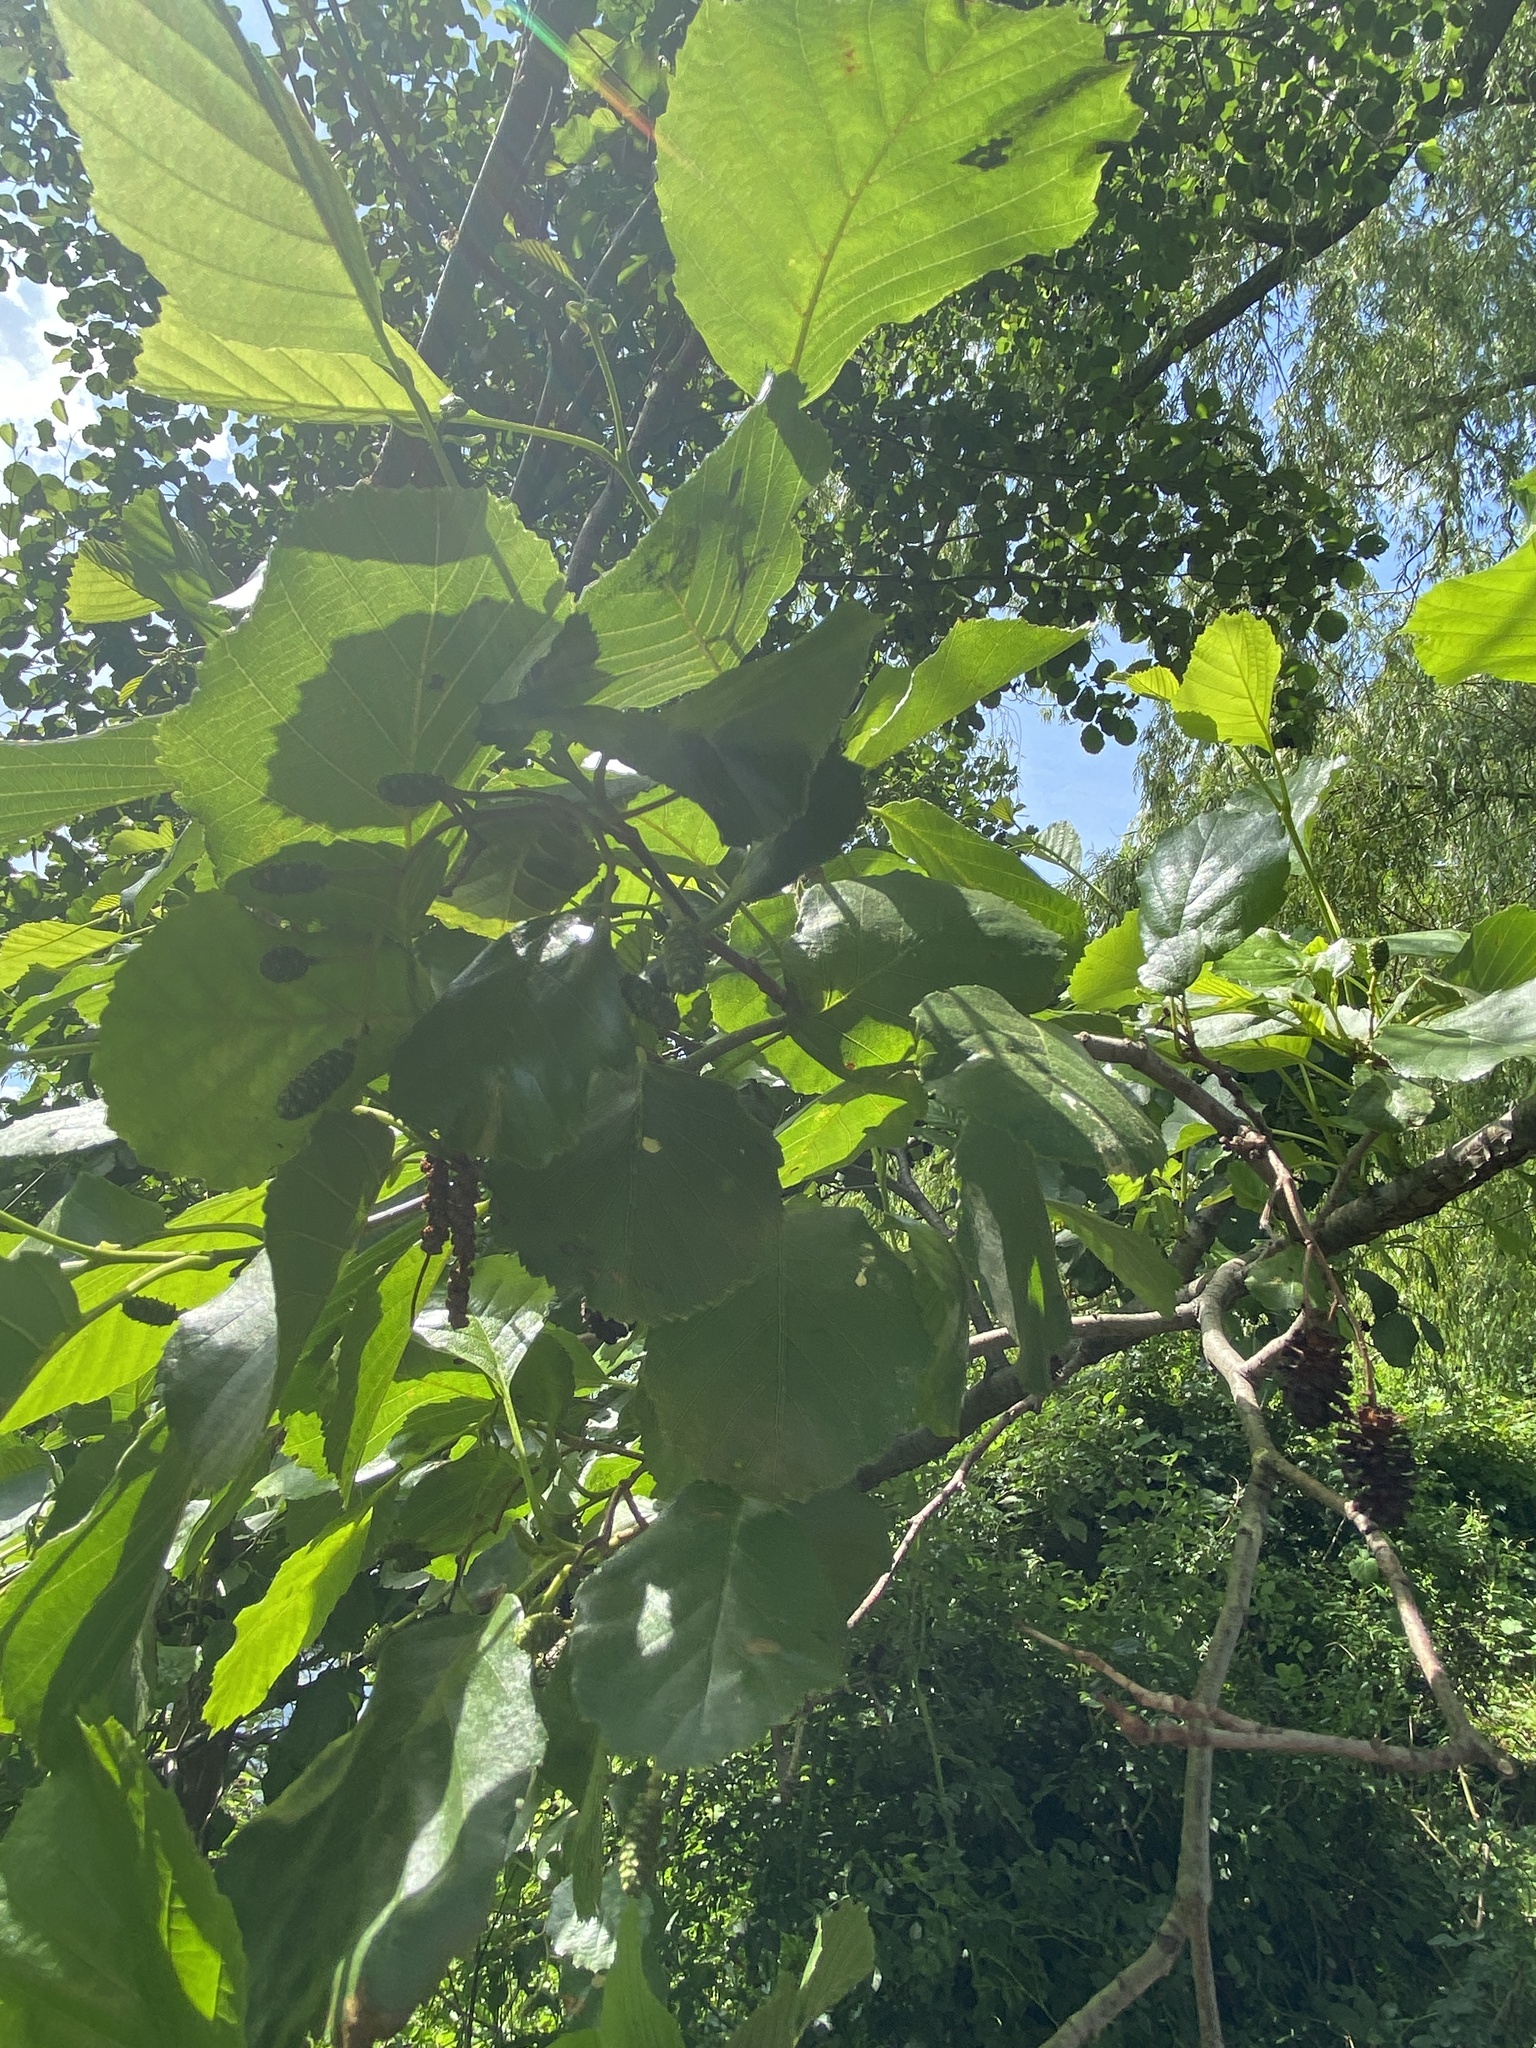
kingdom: Plantae
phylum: Tracheophyta
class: Magnoliopsida
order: Fagales
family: Betulaceae
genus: Alnus
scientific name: Alnus glutinosa
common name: Black alder
